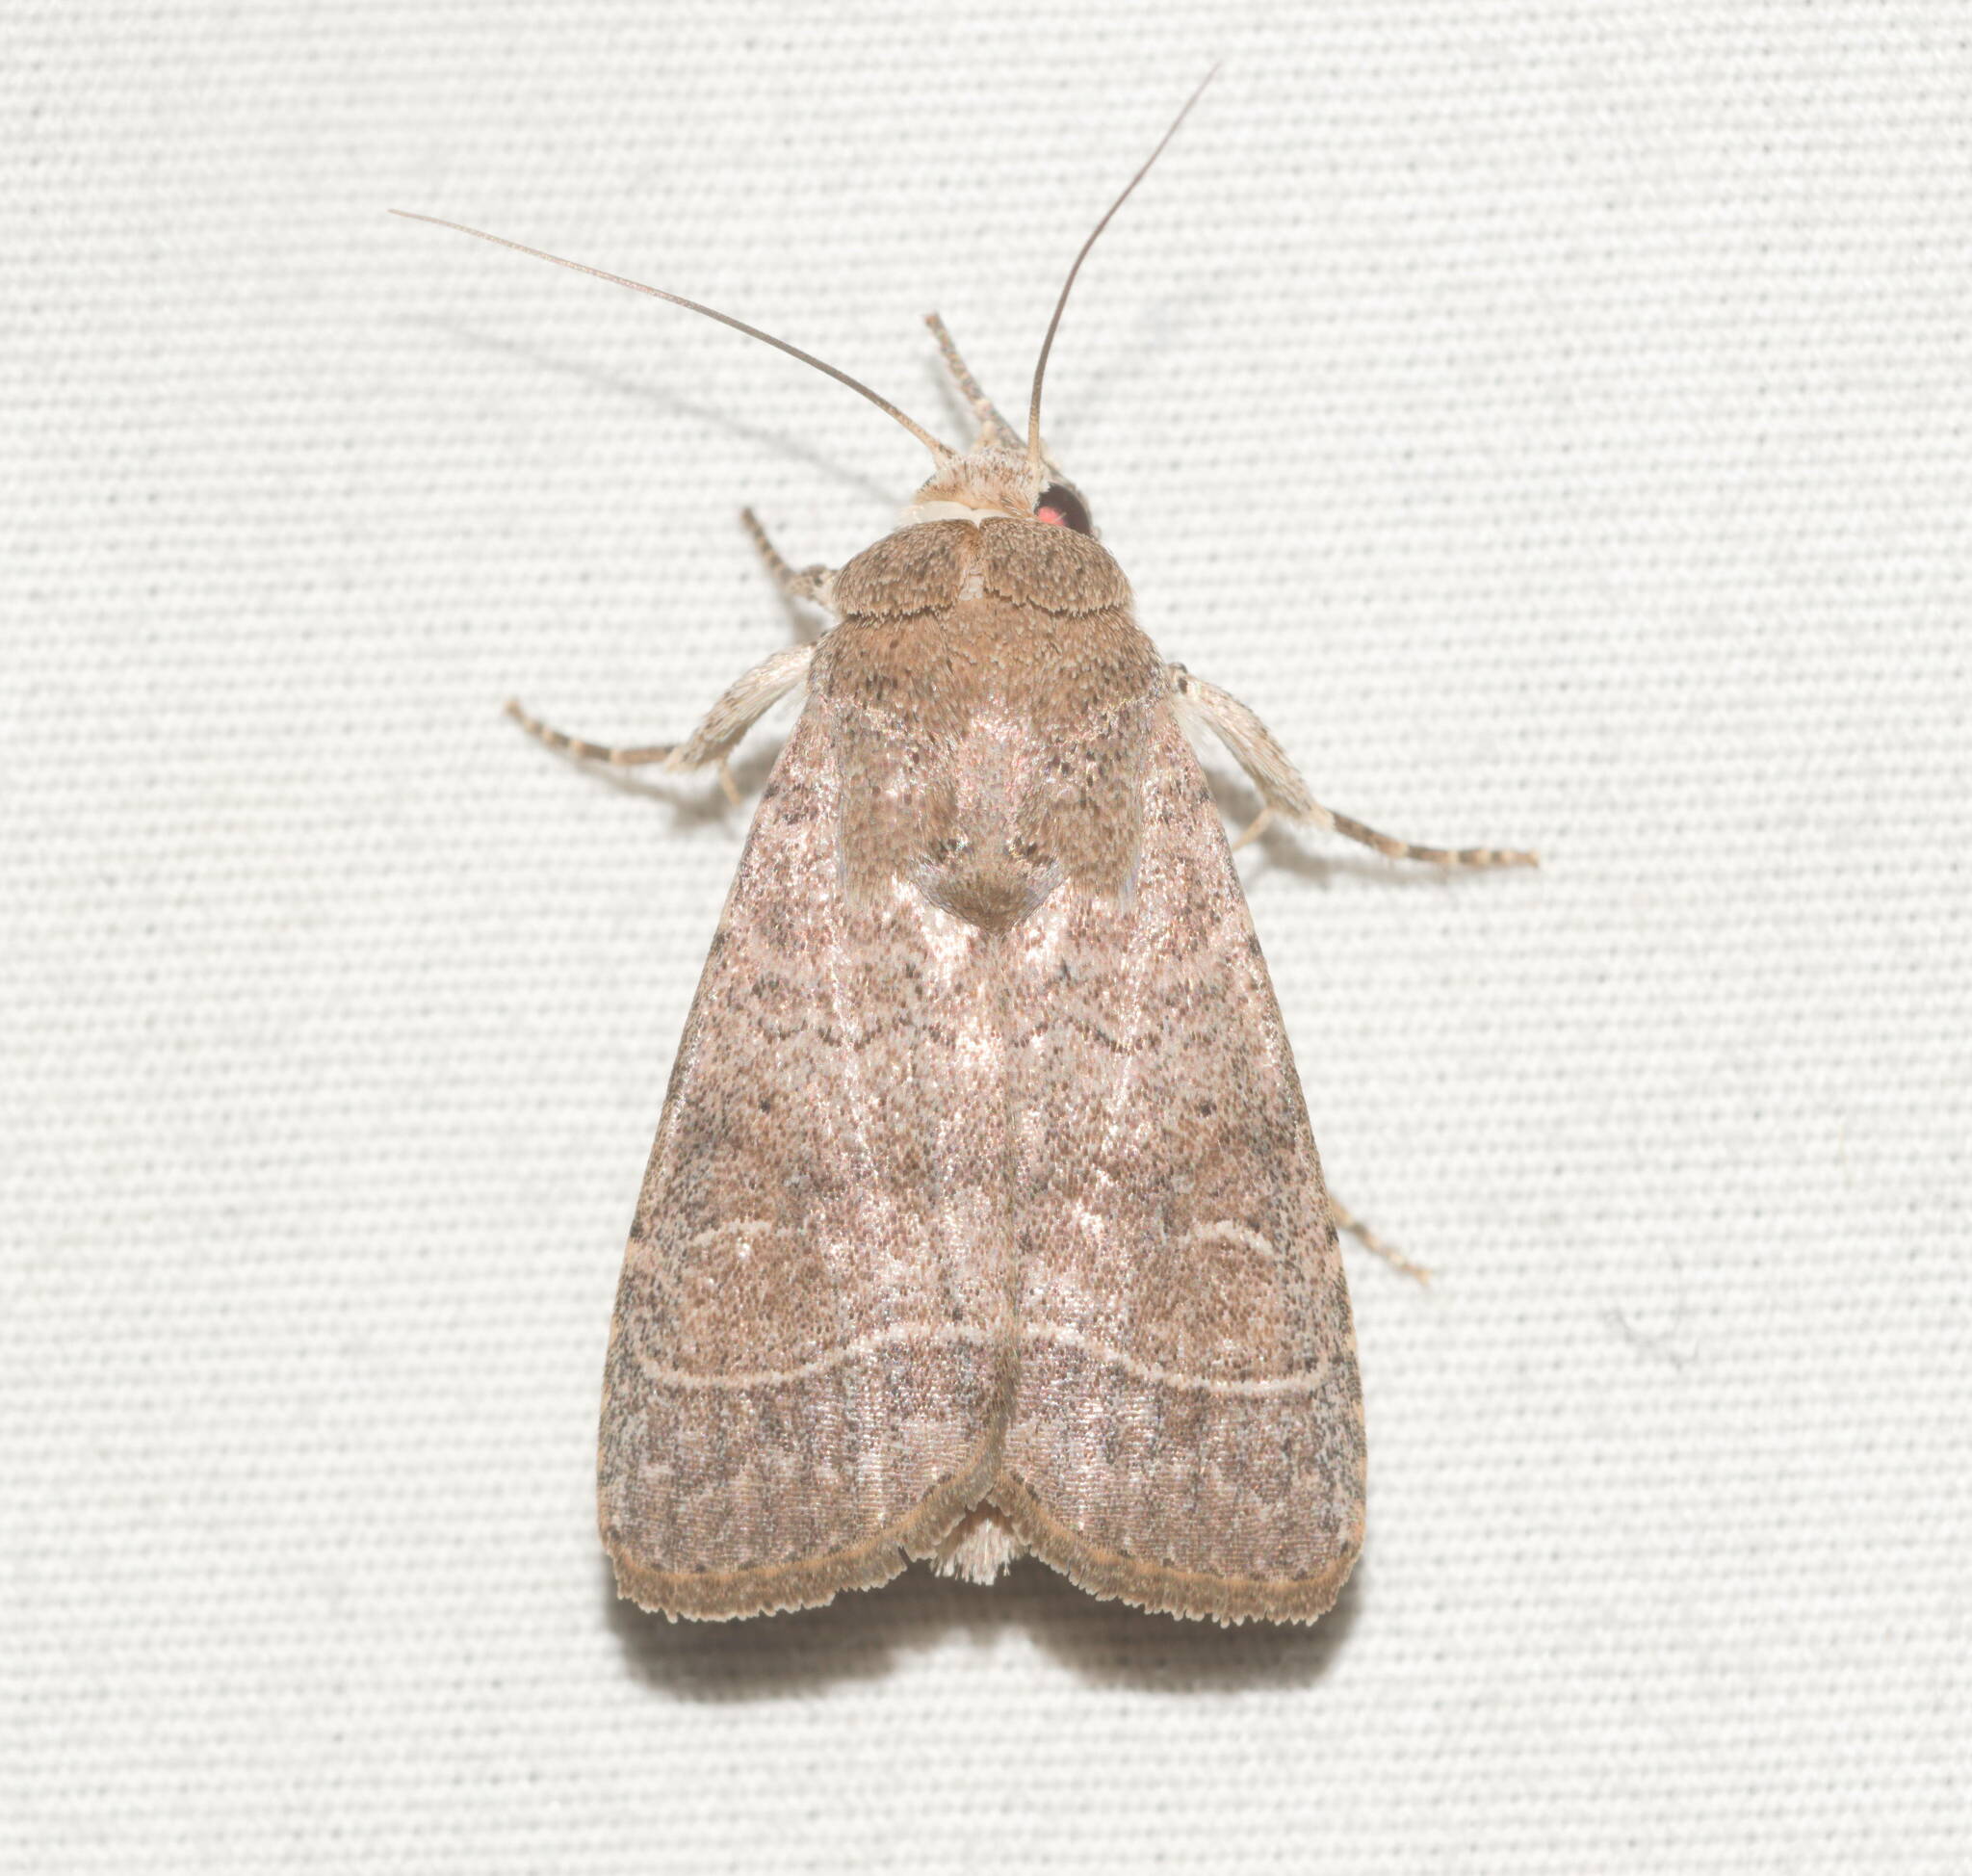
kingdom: Animalia
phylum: Arthropoda
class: Insecta
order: Lepidoptera
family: Noctuidae
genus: Athetis
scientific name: Athetis thoracica
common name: Cutworm
